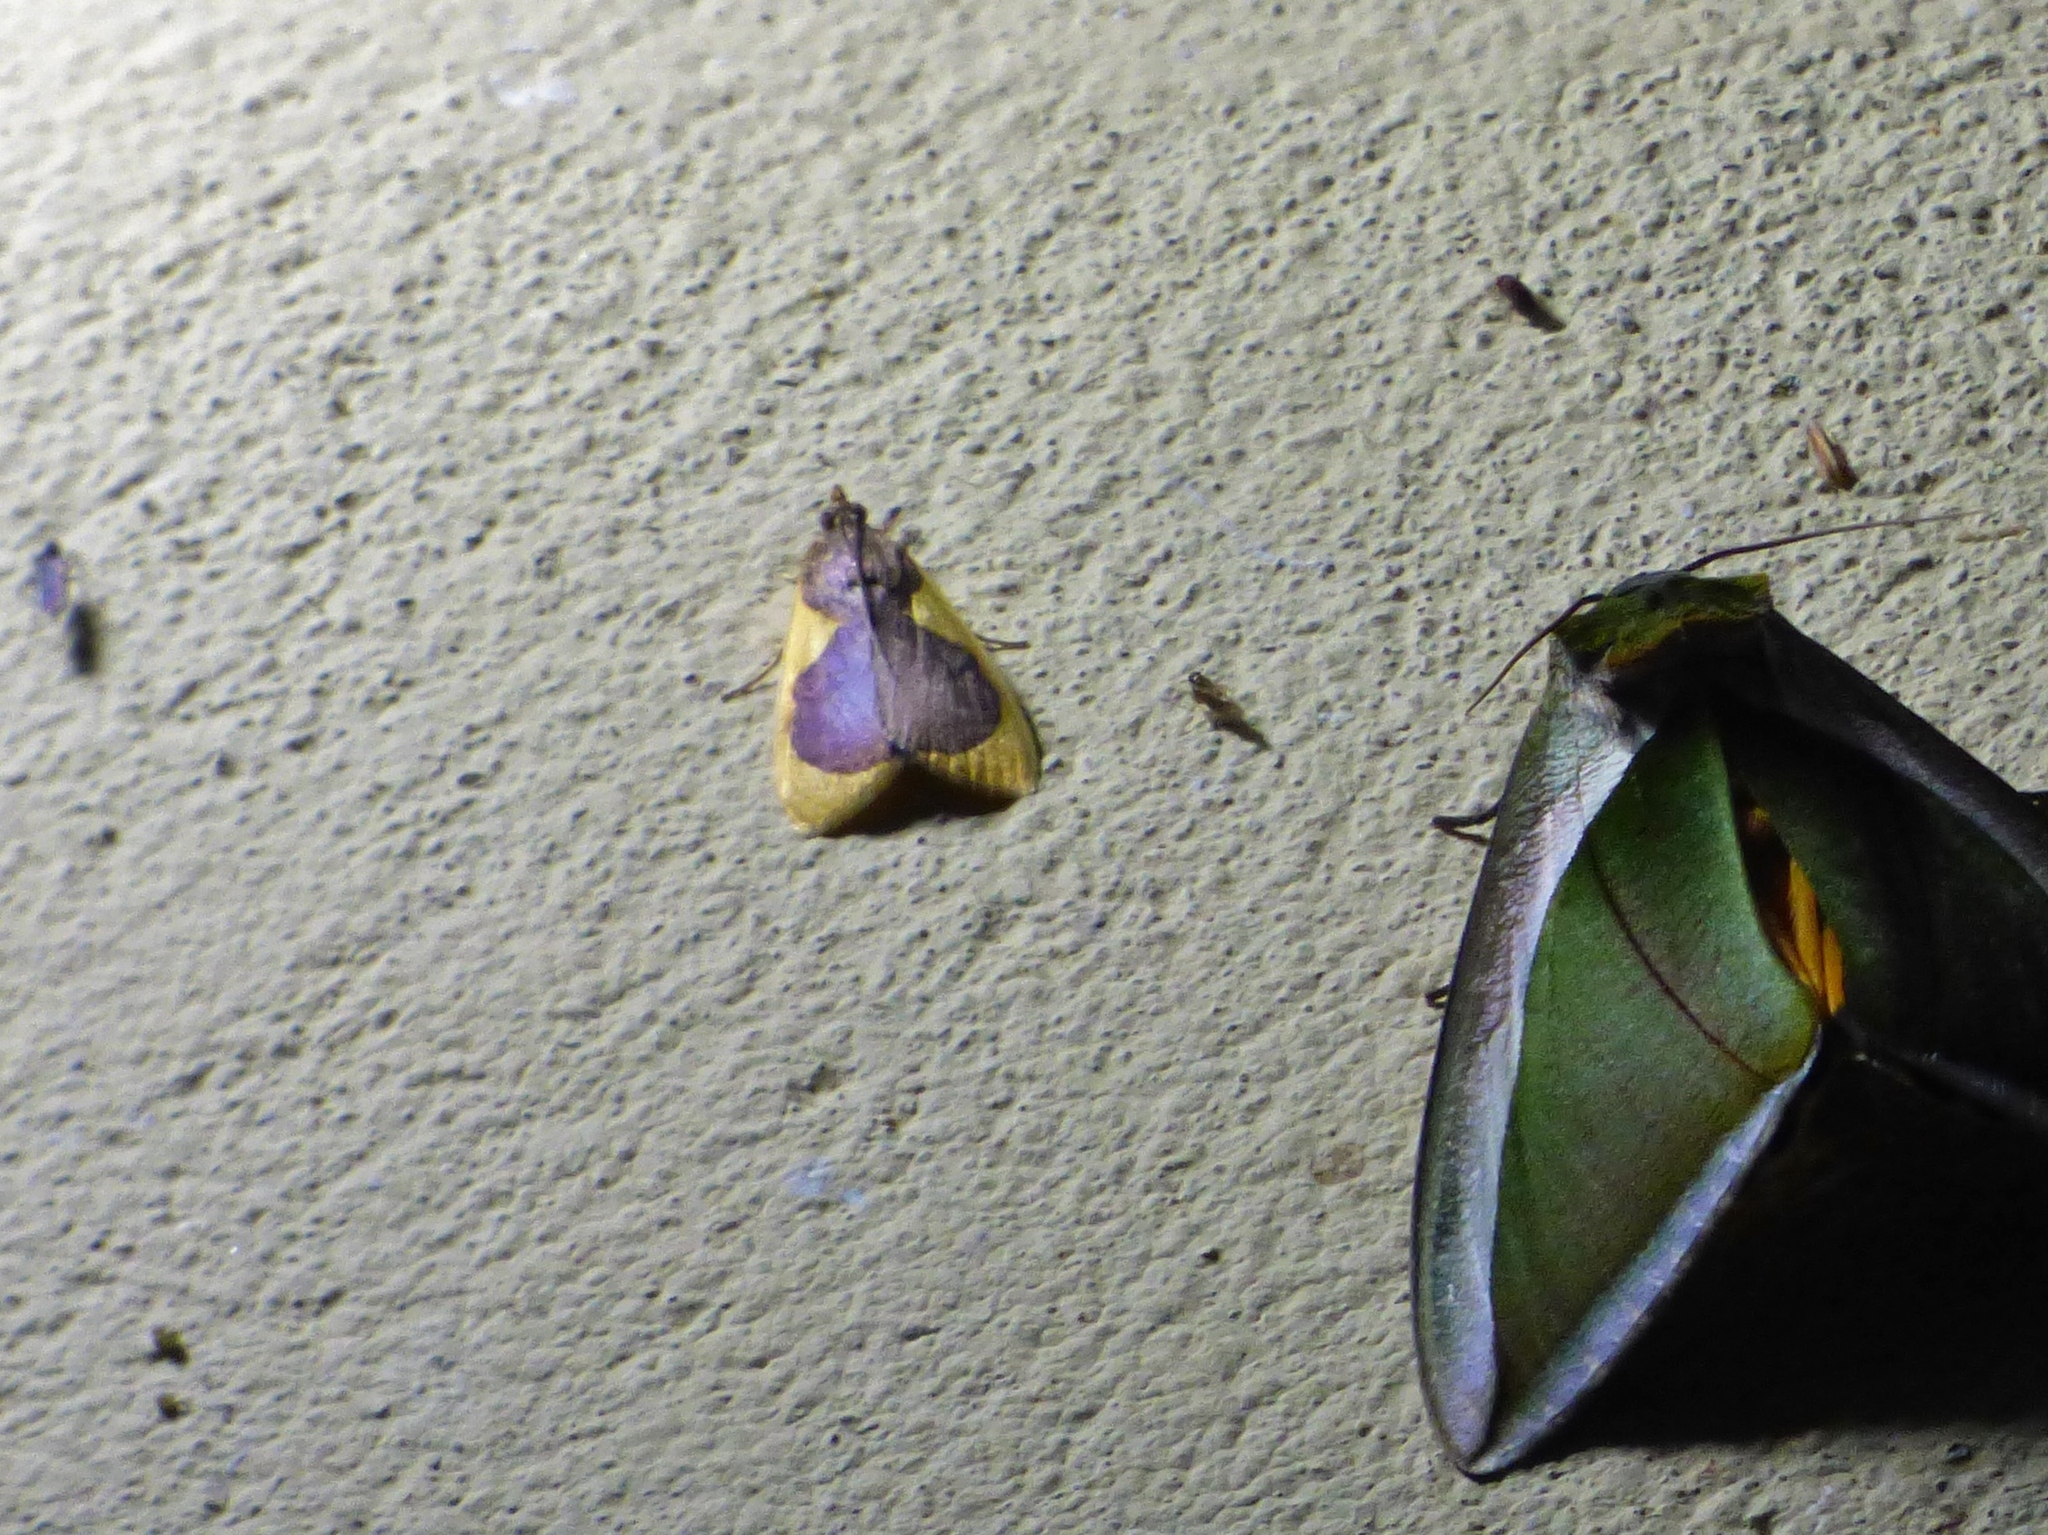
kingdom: Animalia
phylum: Arthropoda
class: Insecta
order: Lepidoptera
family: Crambidae
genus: Prooedema
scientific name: Prooedema inscisalis
